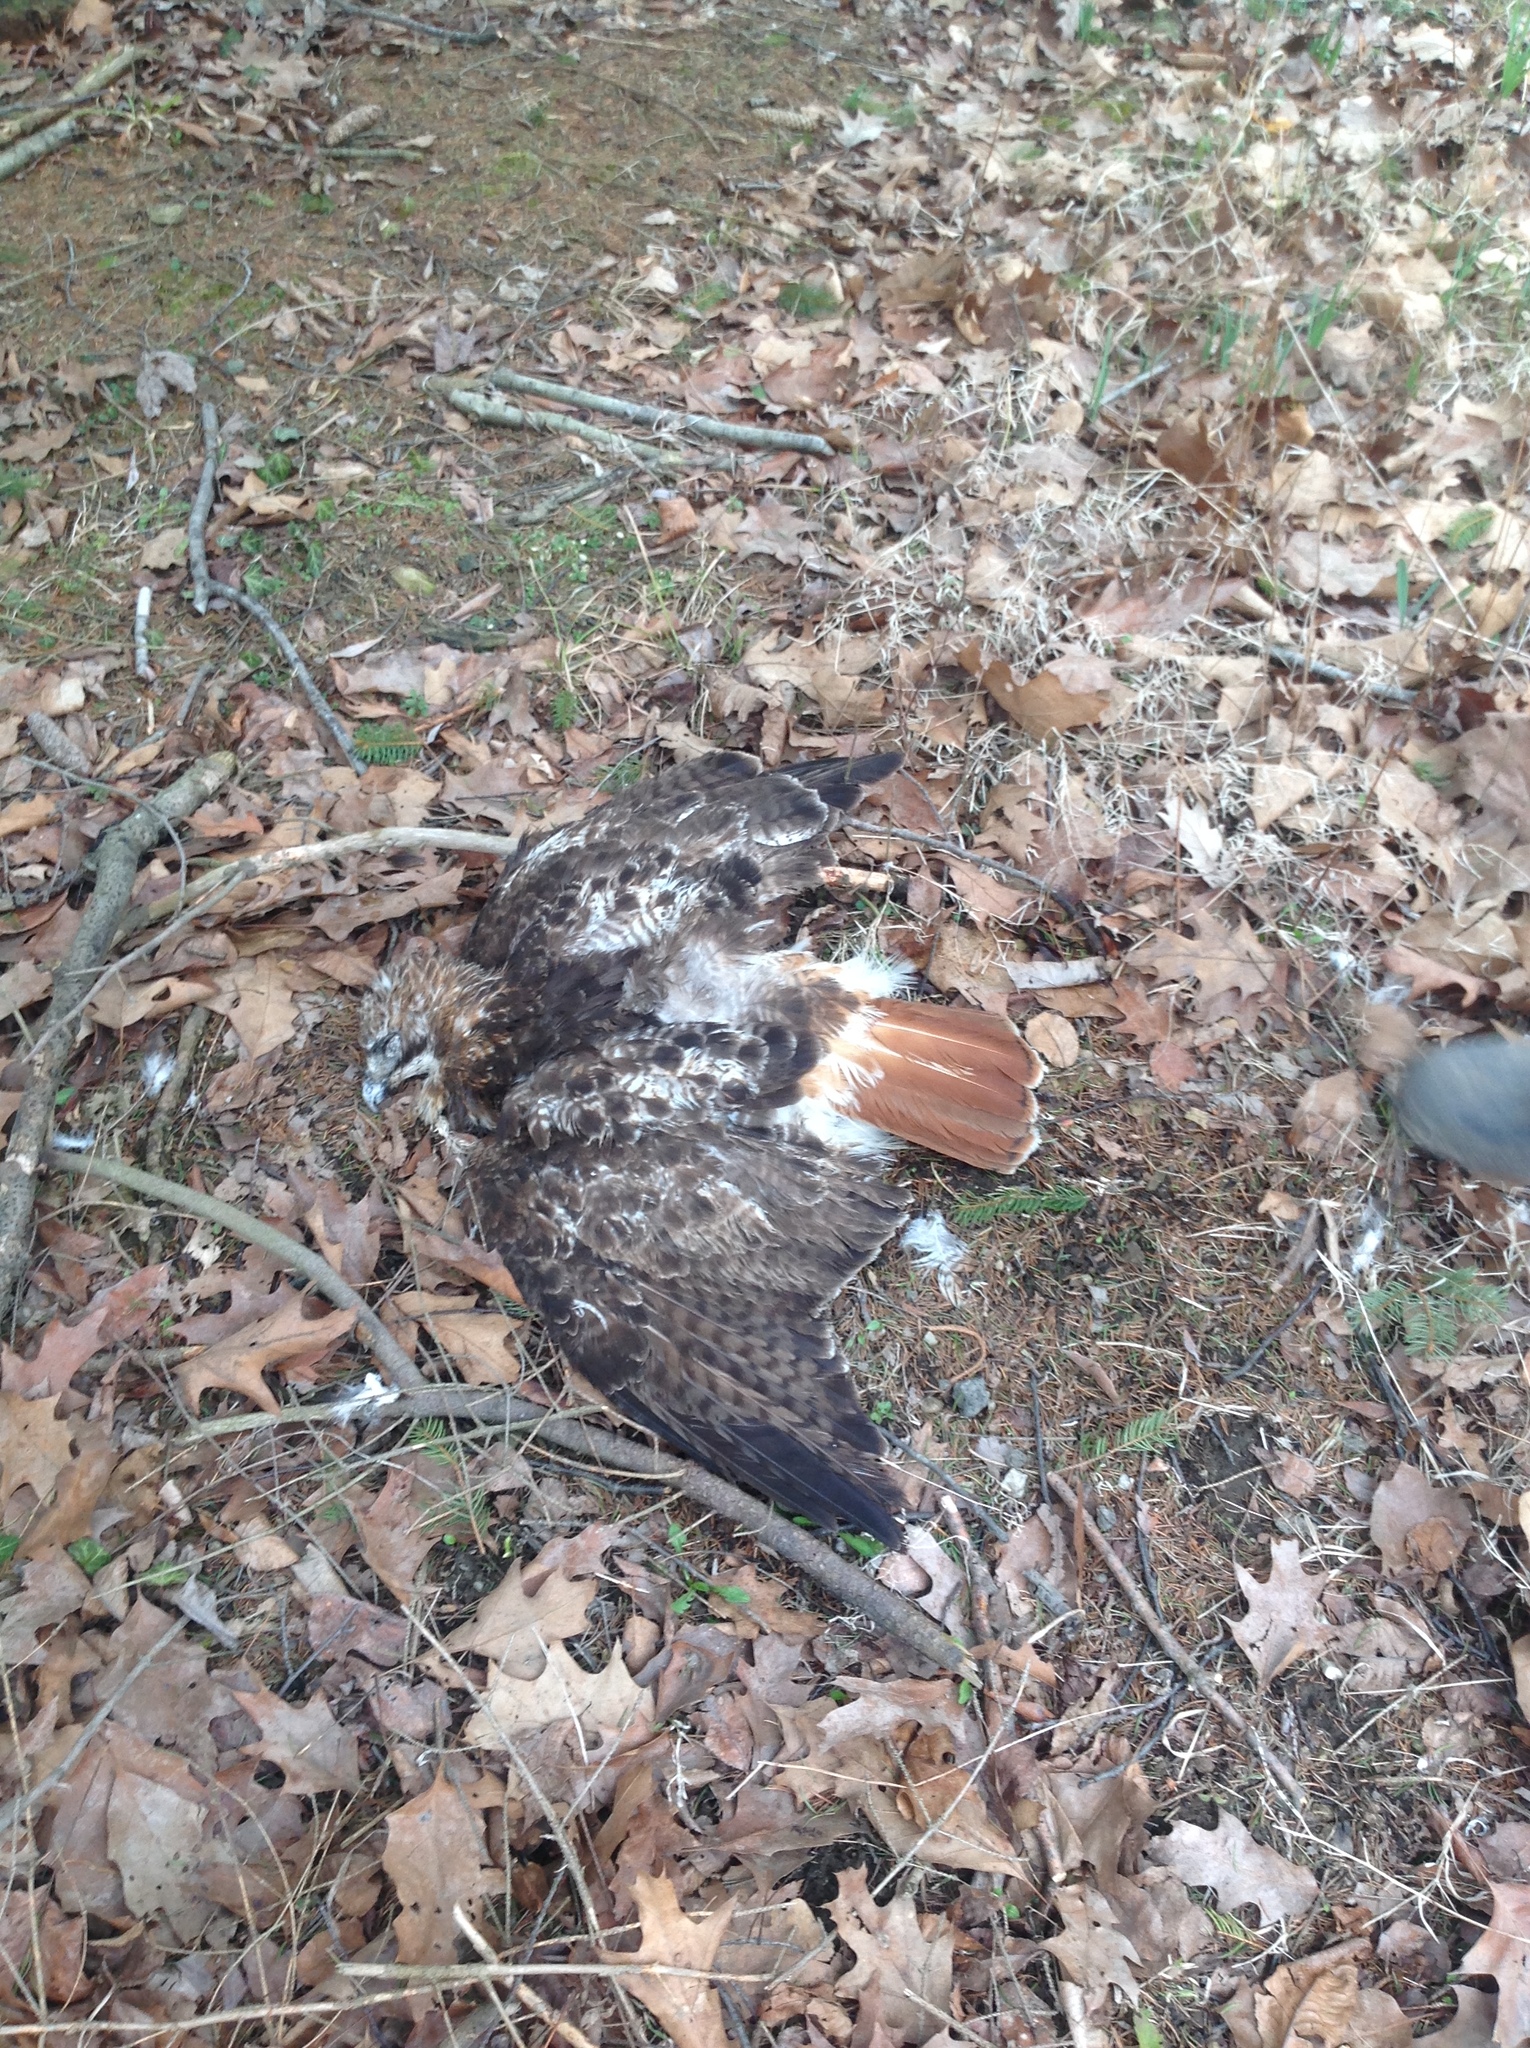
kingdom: Animalia
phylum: Chordata
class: Aves
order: Accipitriformes
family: Accipitridae
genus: Buteo
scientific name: Buteo jamaicensis
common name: Red-tailed hawk
